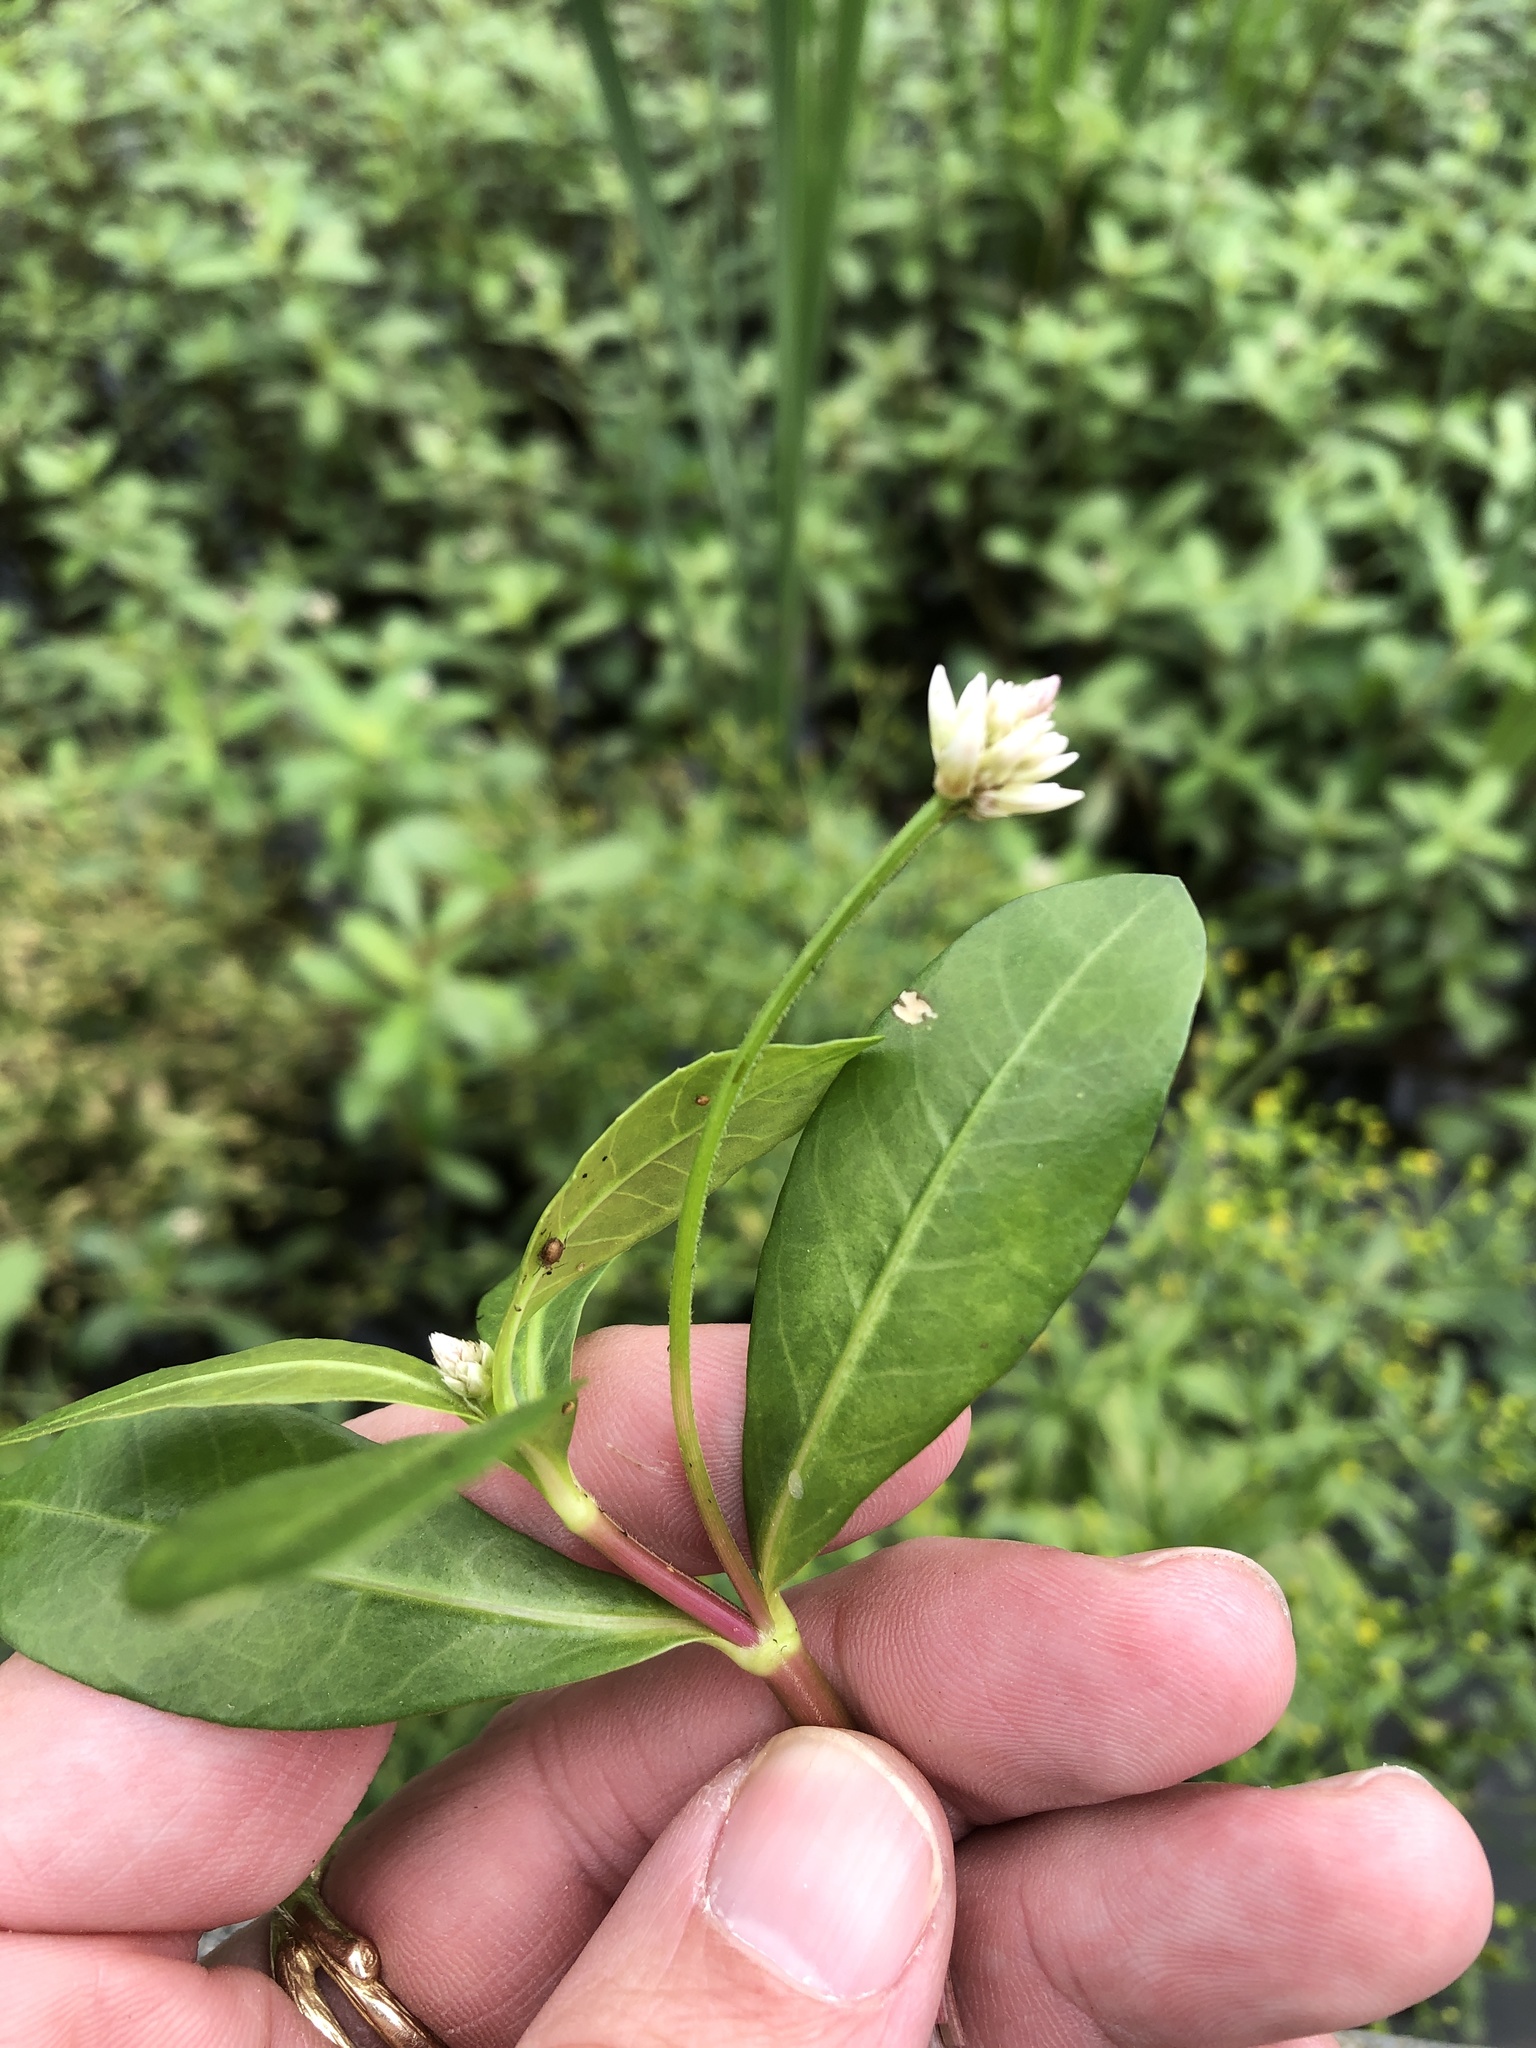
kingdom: Plantae
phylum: Tracheophyta
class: Magnoliopsida
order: Caryophyllales
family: Amaranthaceae
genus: Alternanthera
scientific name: Alternanthera philoxeroides
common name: Alligatorweed
